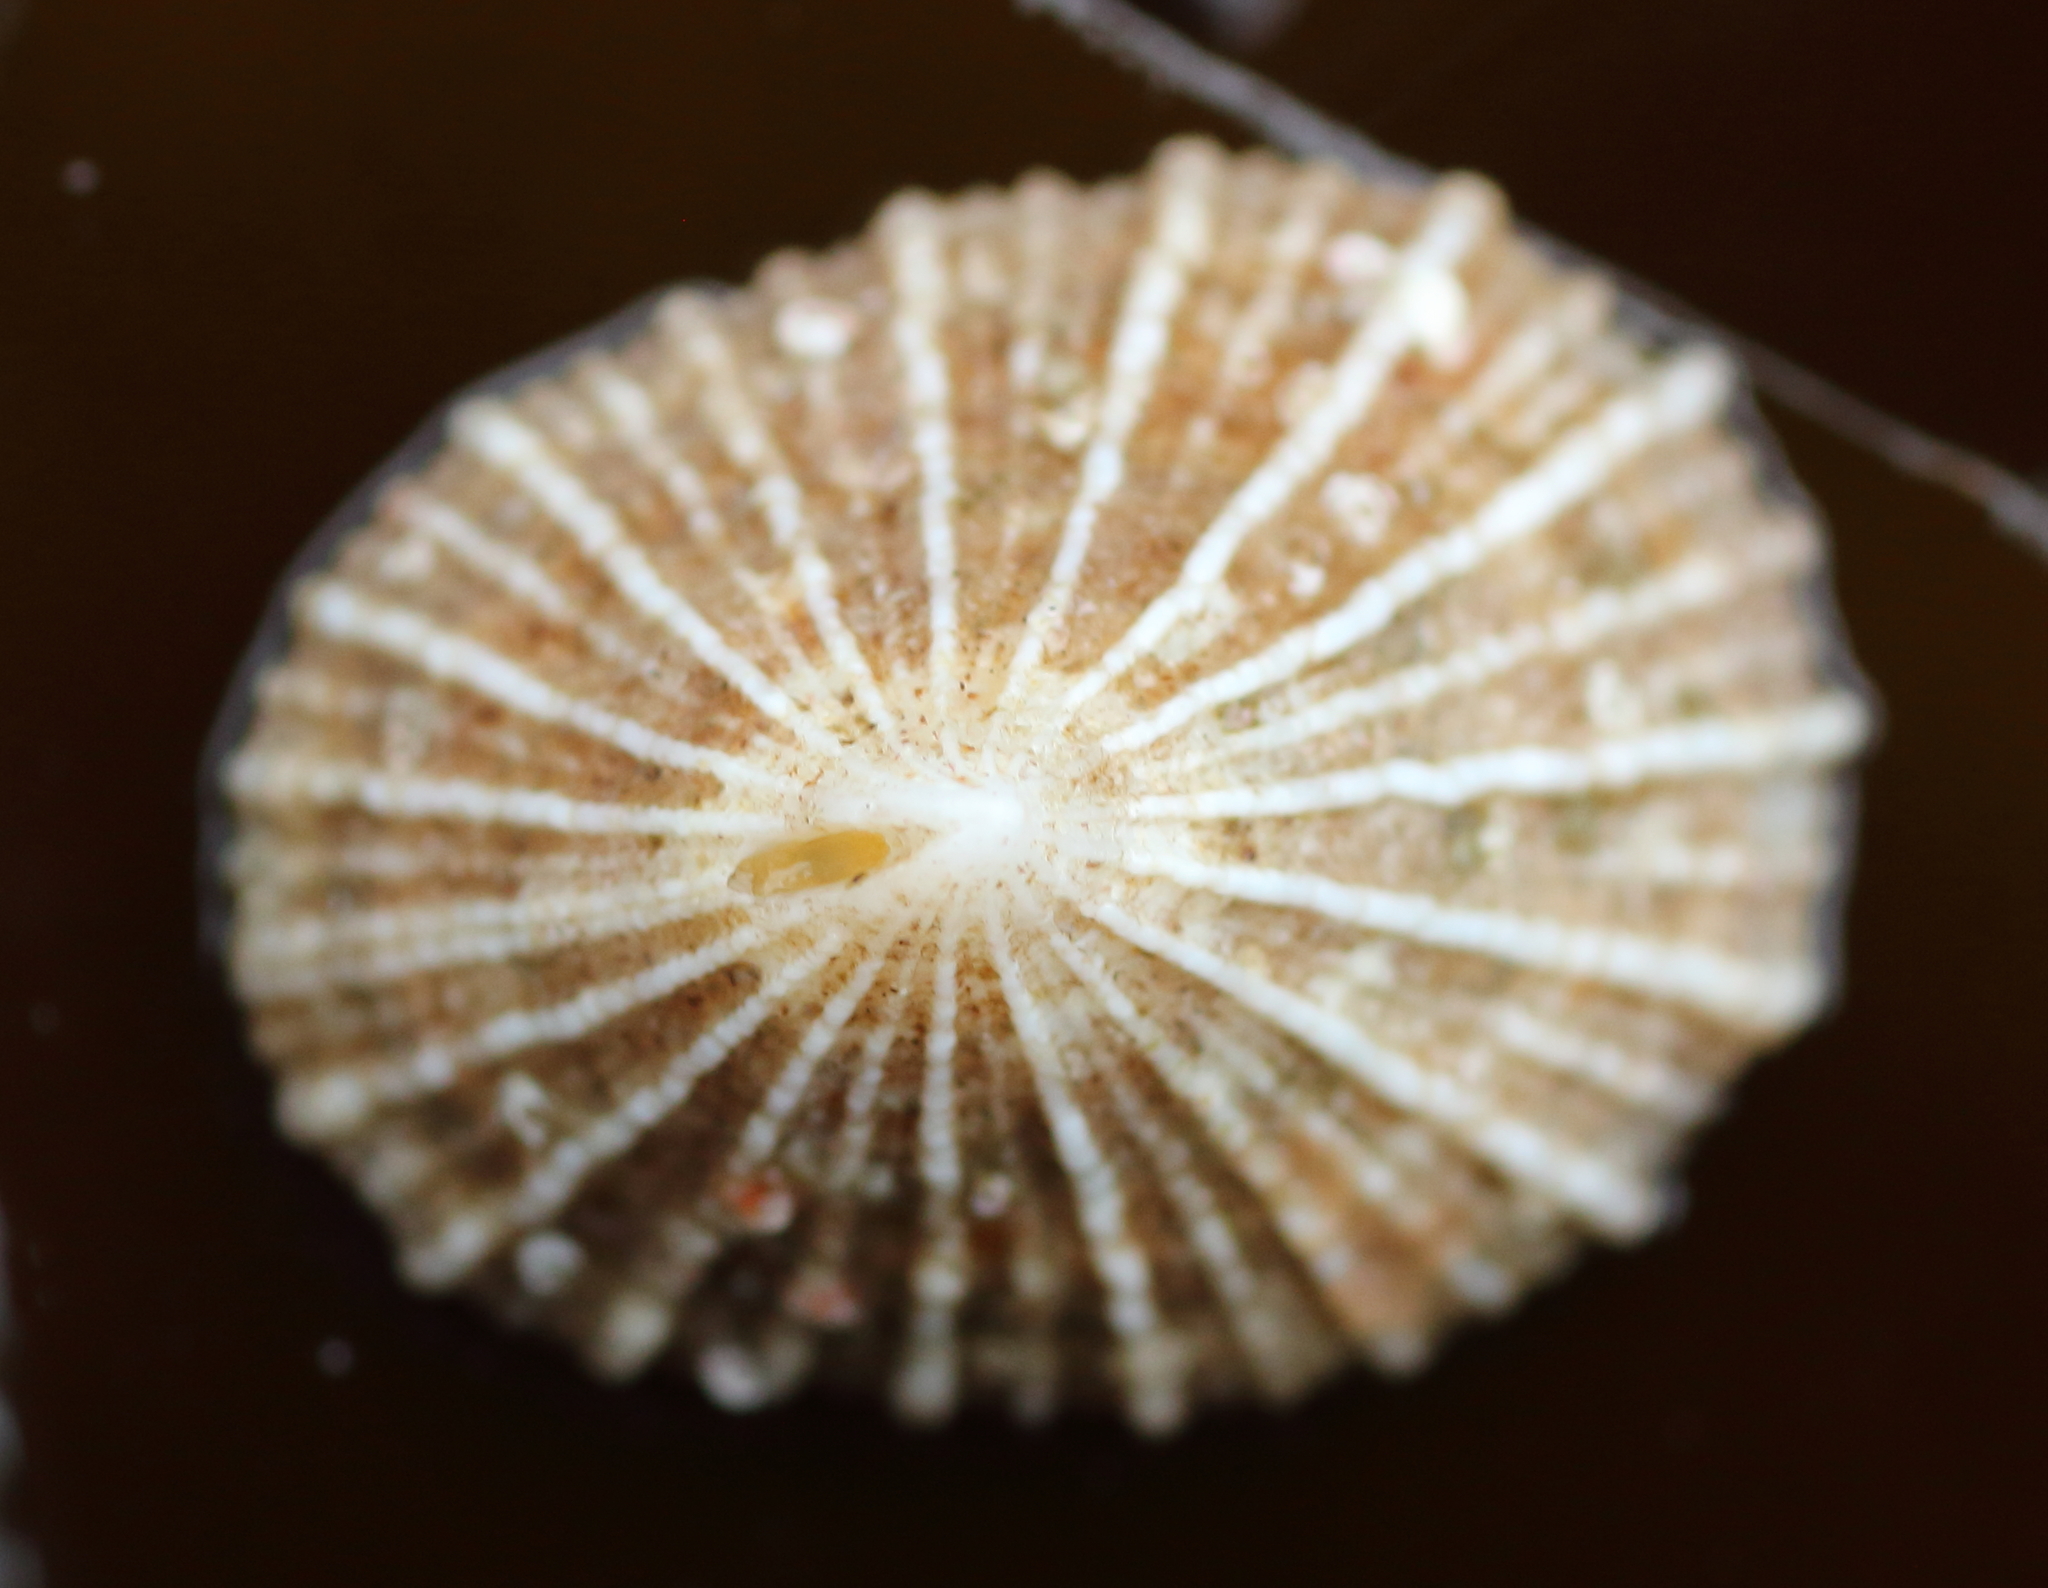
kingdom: Animalia
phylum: Mollusca
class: Gastropoda
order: Lepetellida
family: Fissurellidae
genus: Puncturella
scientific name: Puncturella multistriata
